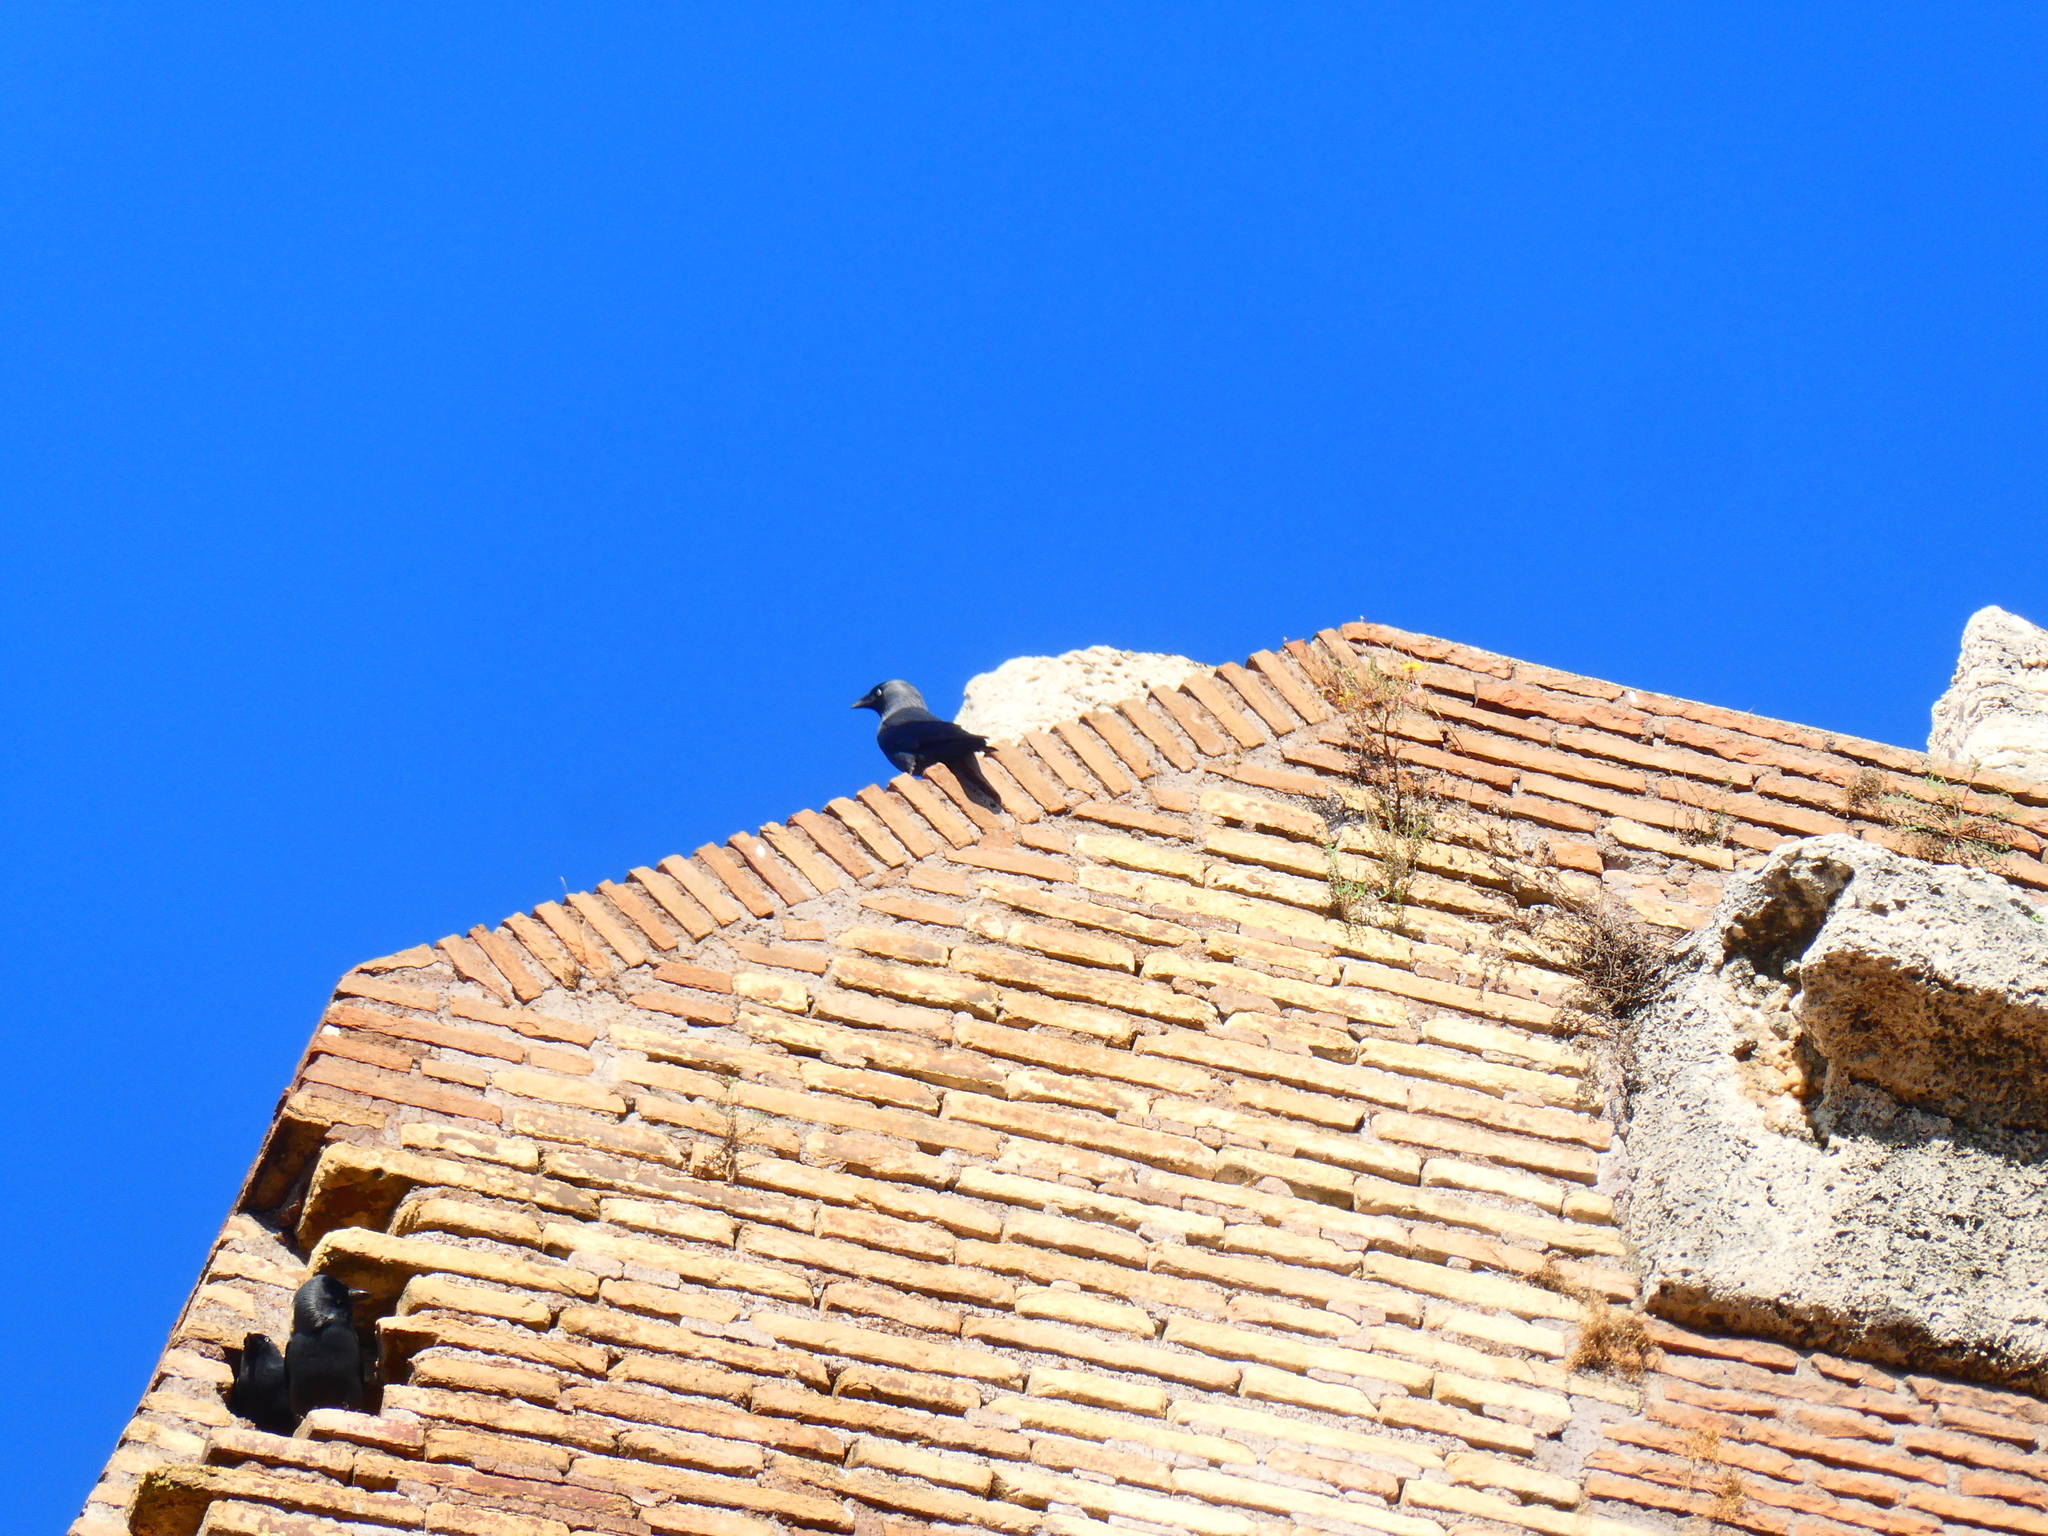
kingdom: Animalia
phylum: Chordata
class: Aves
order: Passeriformes
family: Corvidae
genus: Coloeus
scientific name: Coloeus monedula
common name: Western jackdaw
